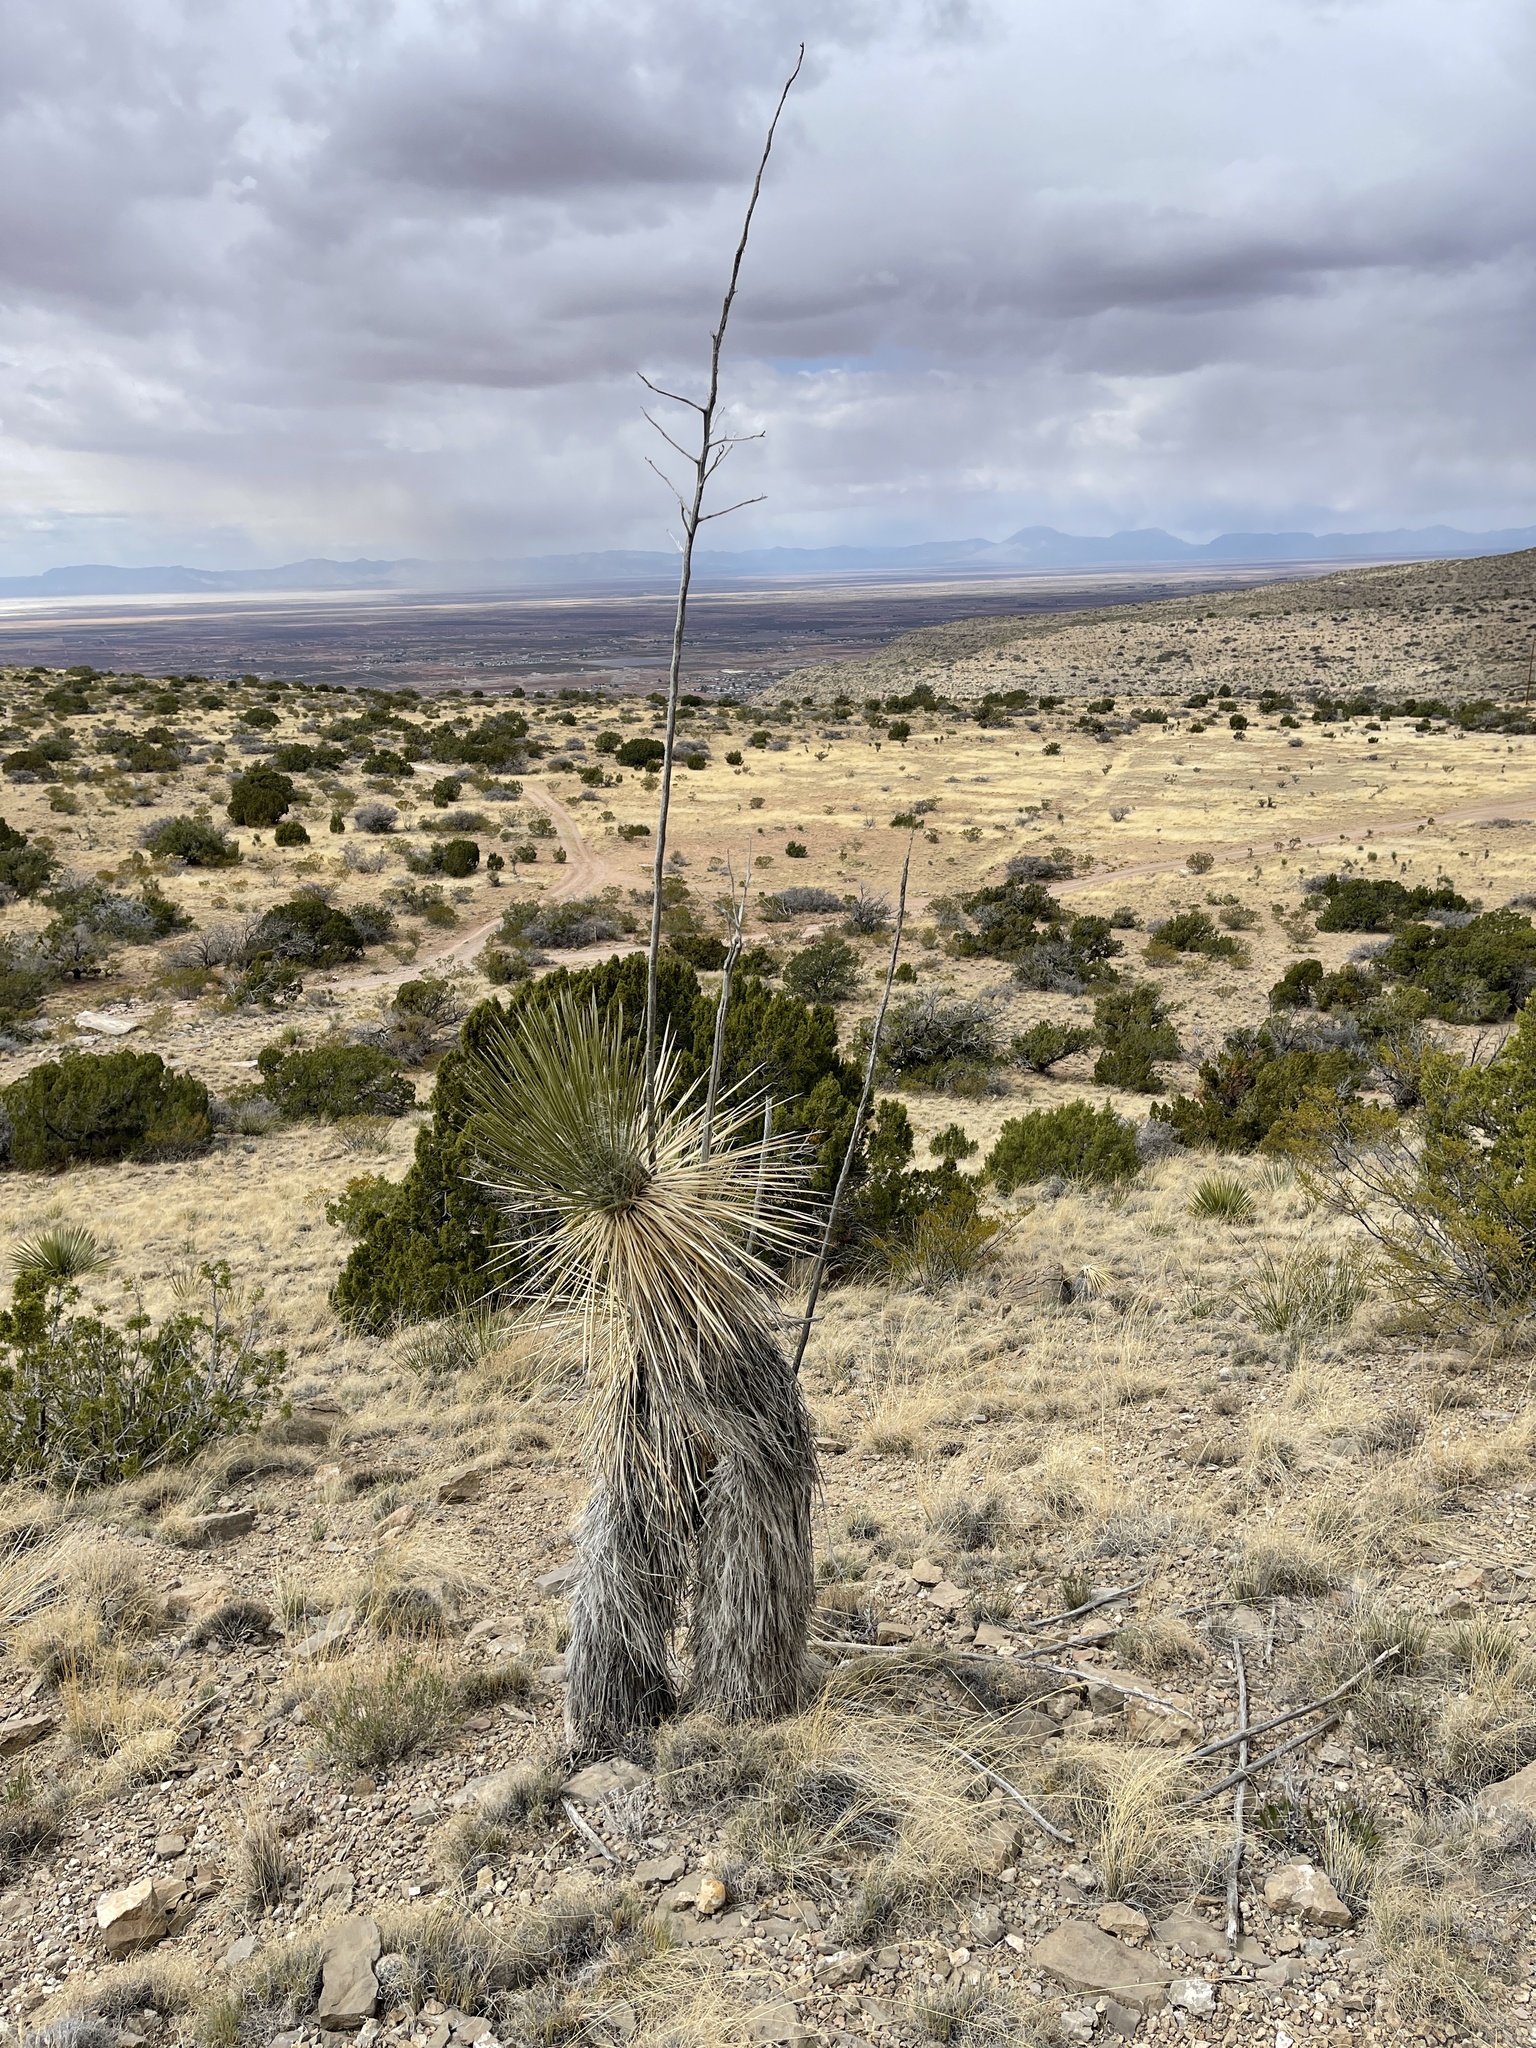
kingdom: Plantae
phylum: Tracheophyta
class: Liliopsida
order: Asparagales
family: Asparagaceae
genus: Yucca
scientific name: Yucca elata
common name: Palmella
